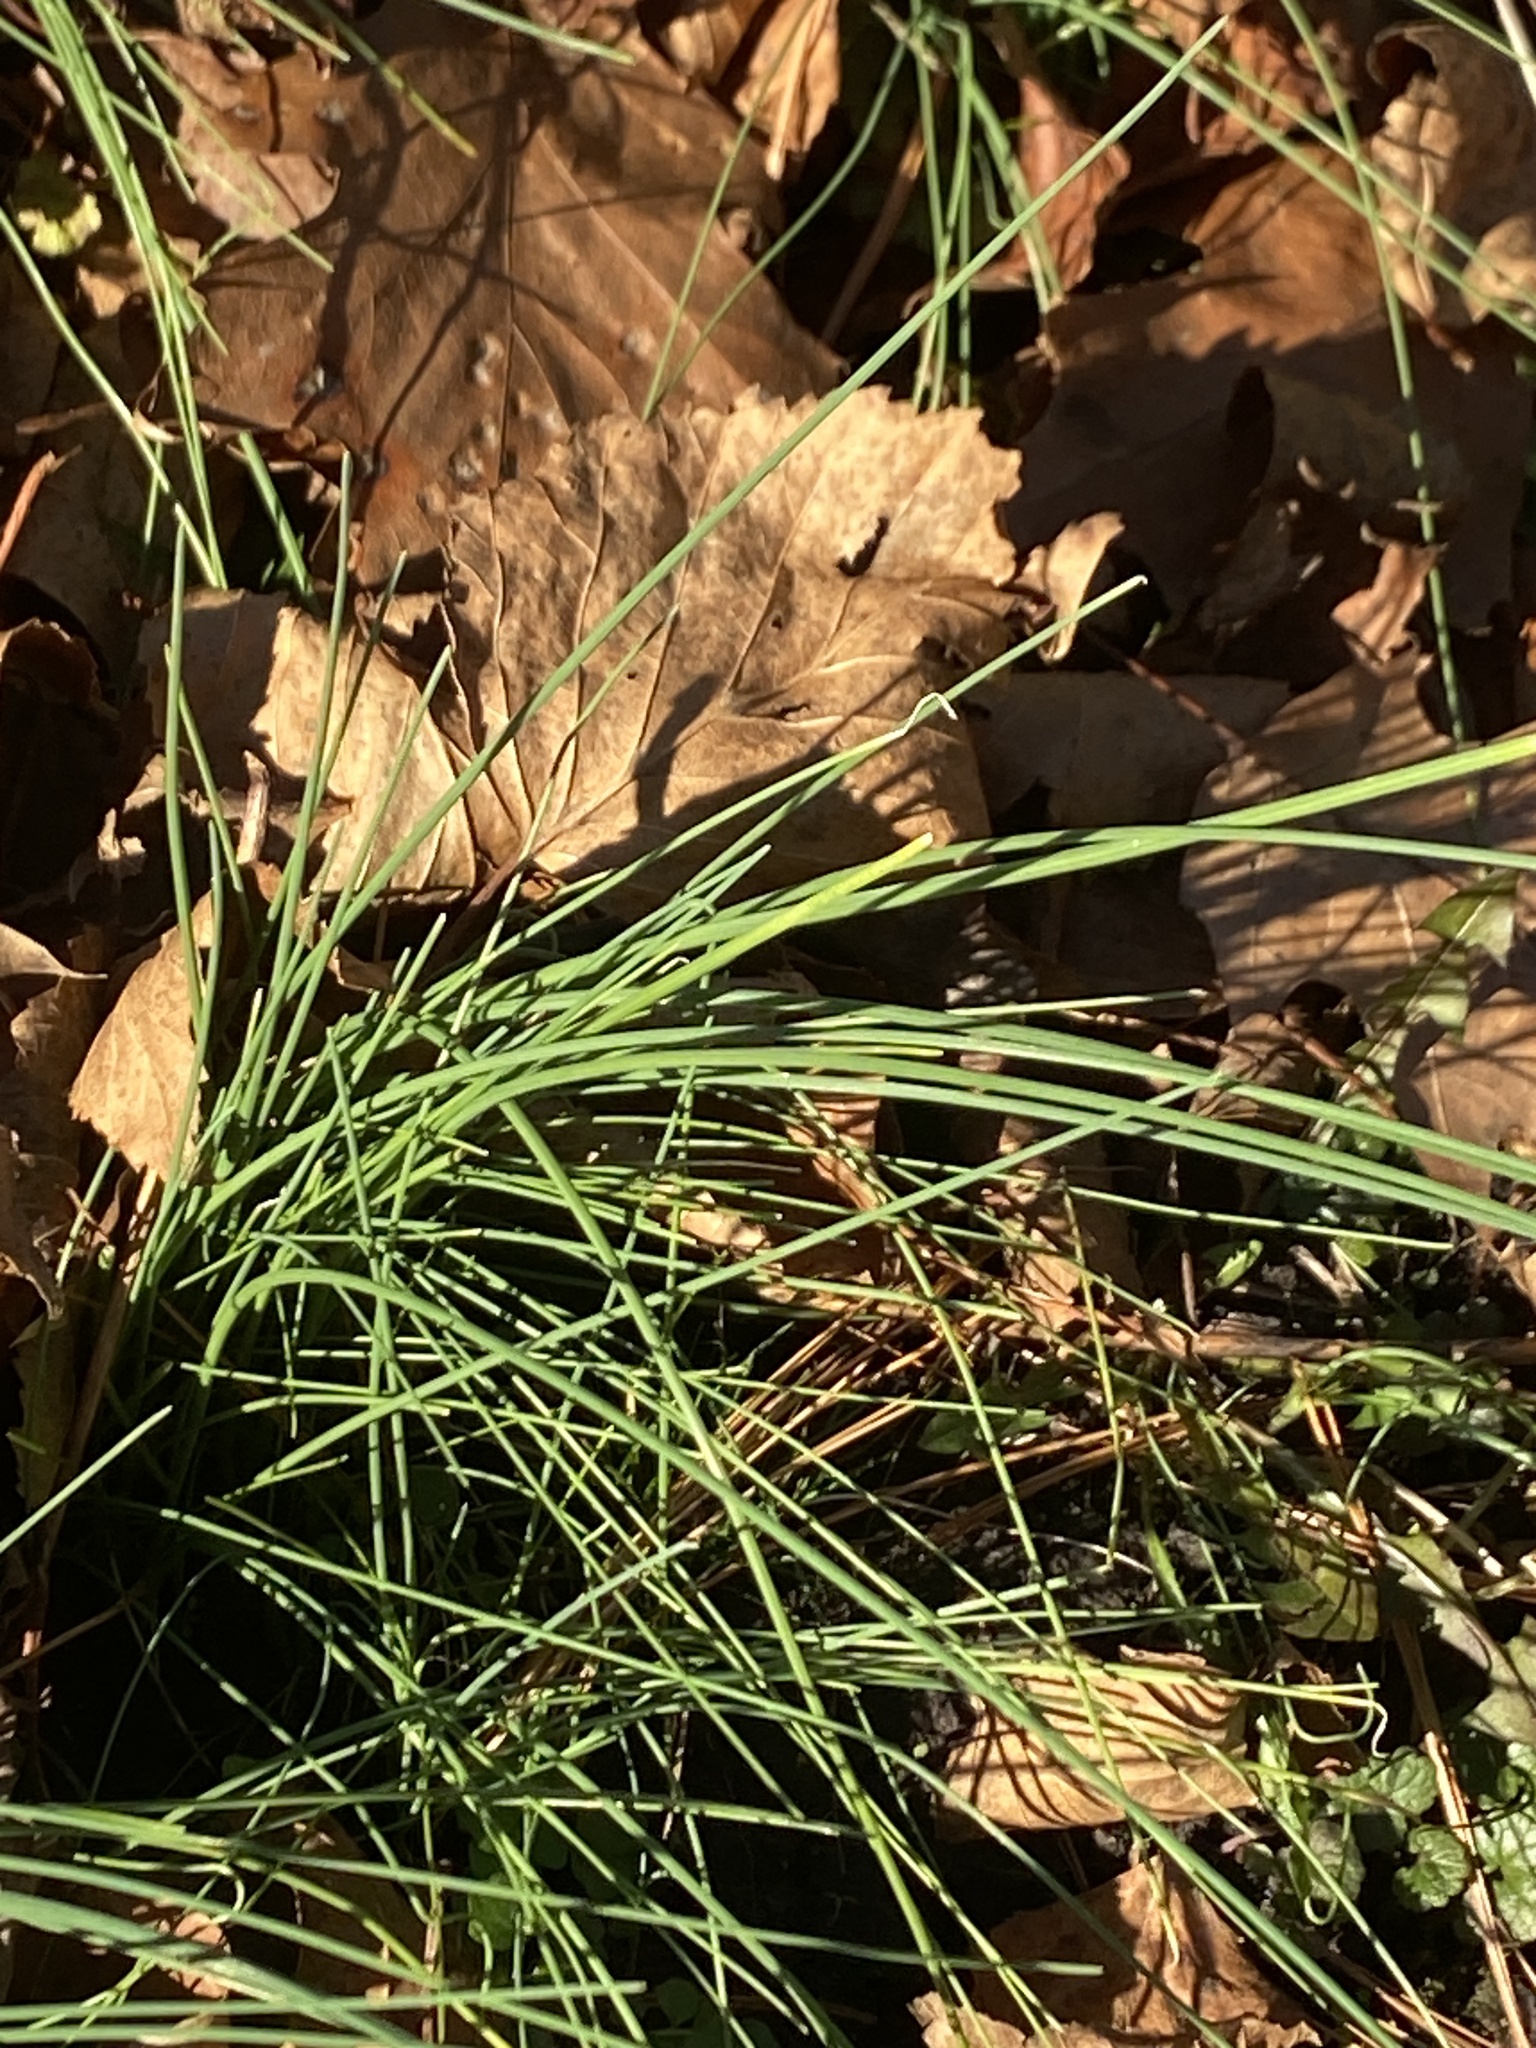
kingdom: Plantae
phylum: Tracheophyta
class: Liliopsida
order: Asparagales
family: Amaryllidaceae
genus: Allium
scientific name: Allium vineale
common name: Crow garlic
